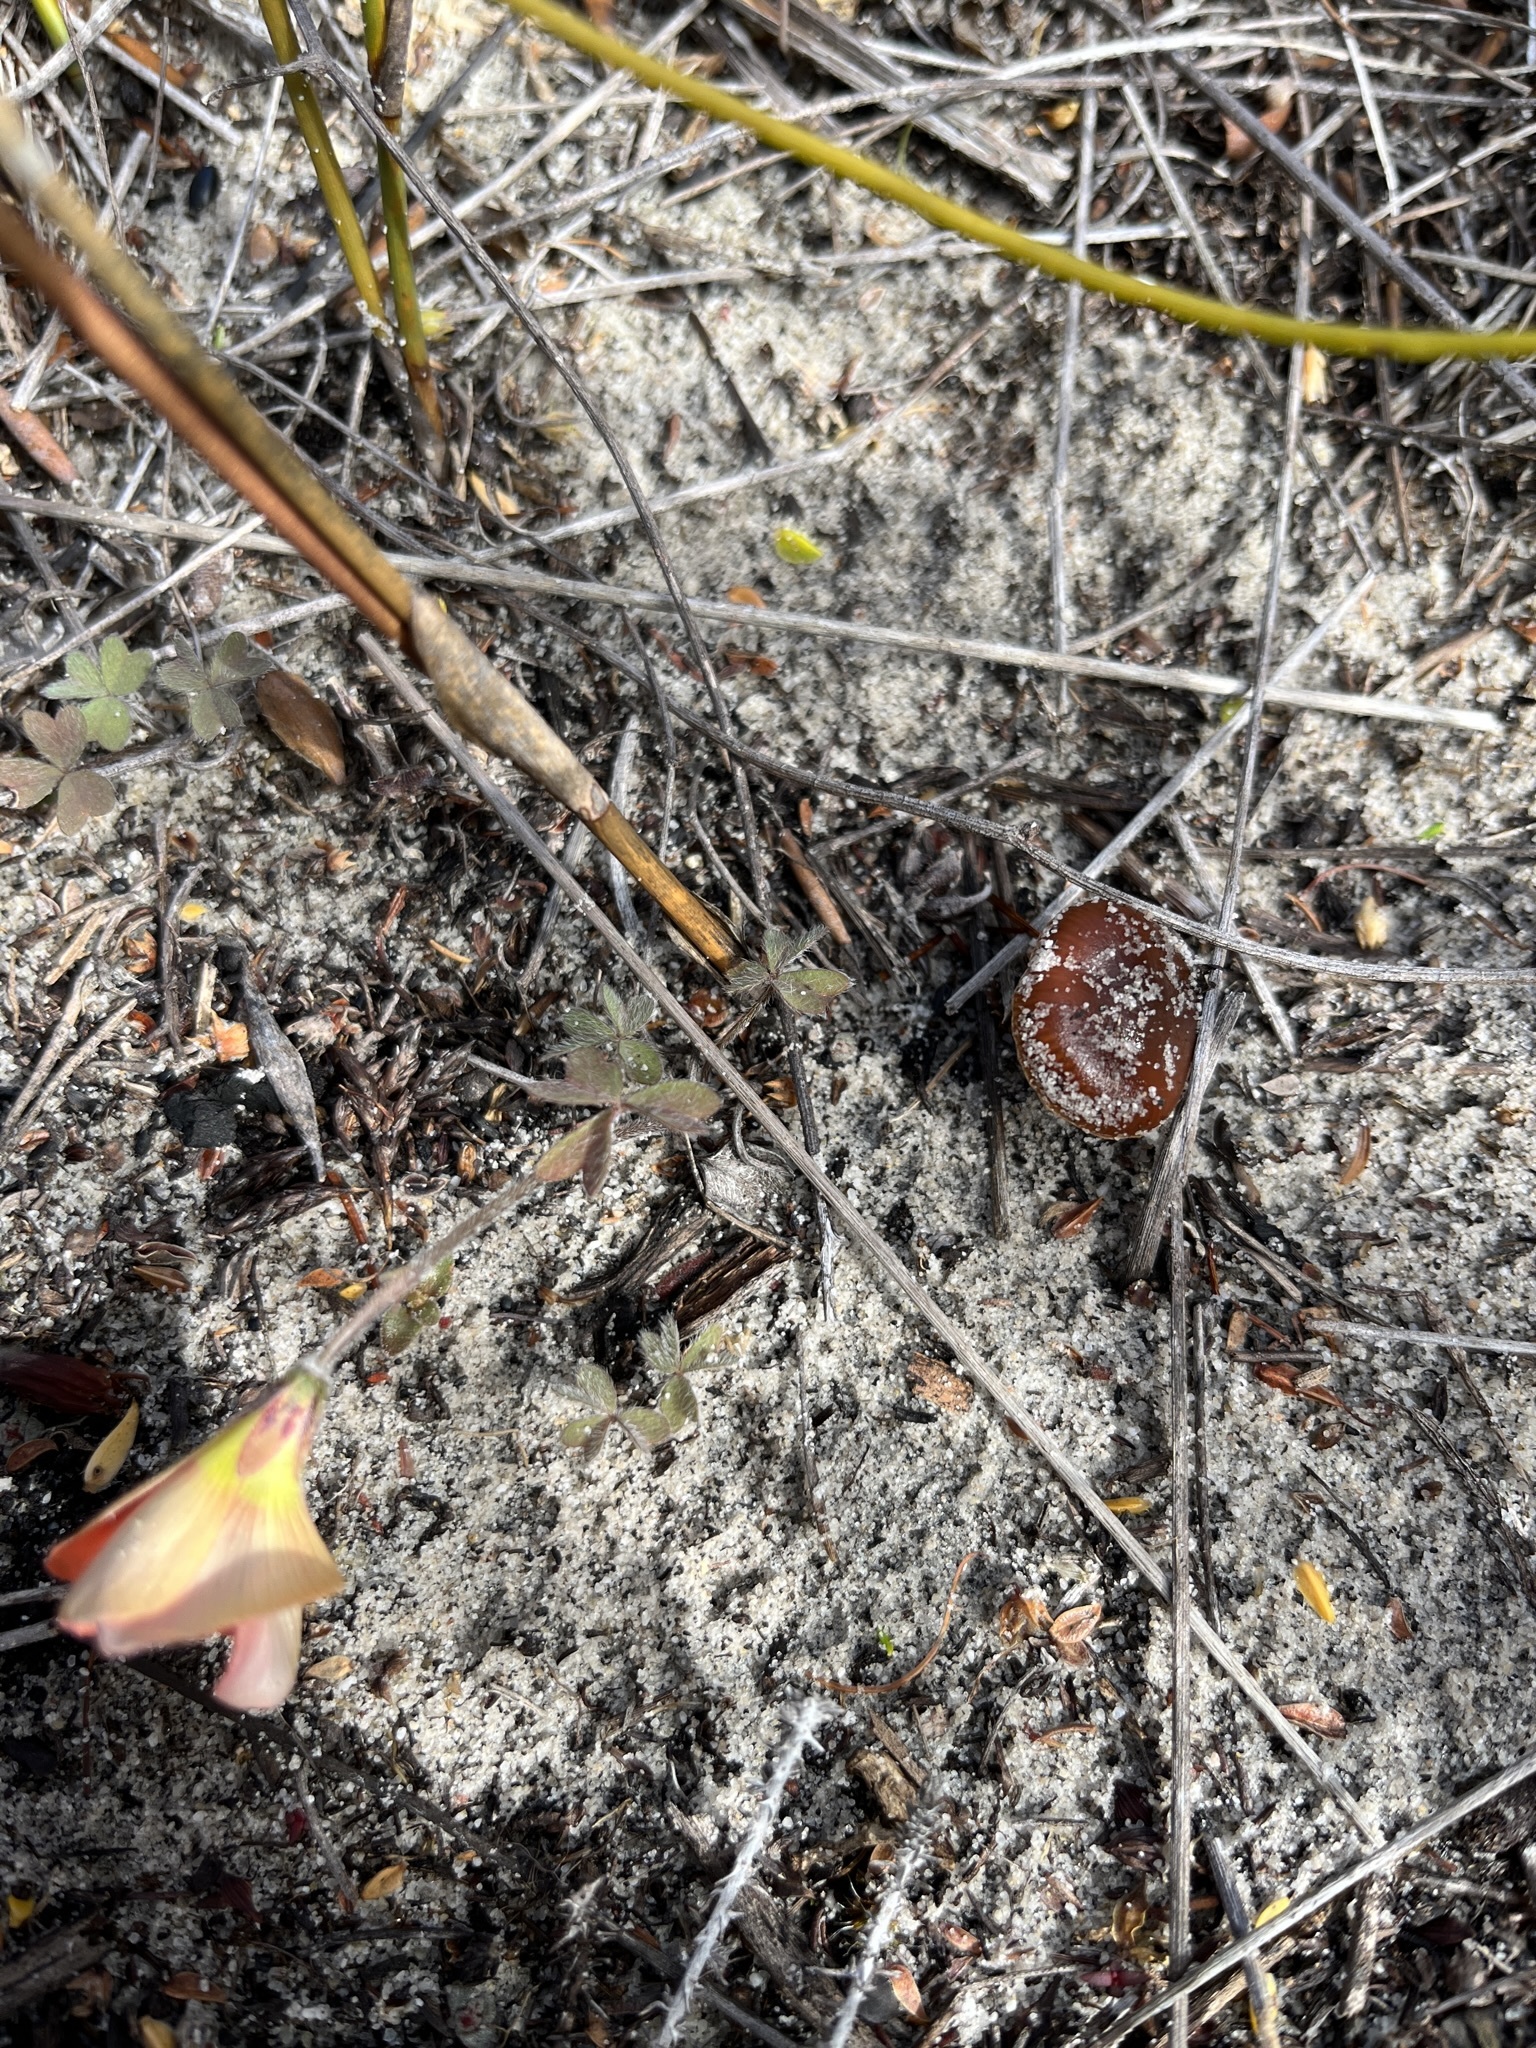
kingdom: Plantae
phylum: Tracheophyta
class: Magnoliopsida
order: Oxalidales
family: Oxalidaceae
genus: Oxalis
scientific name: Oxalis obtusa
